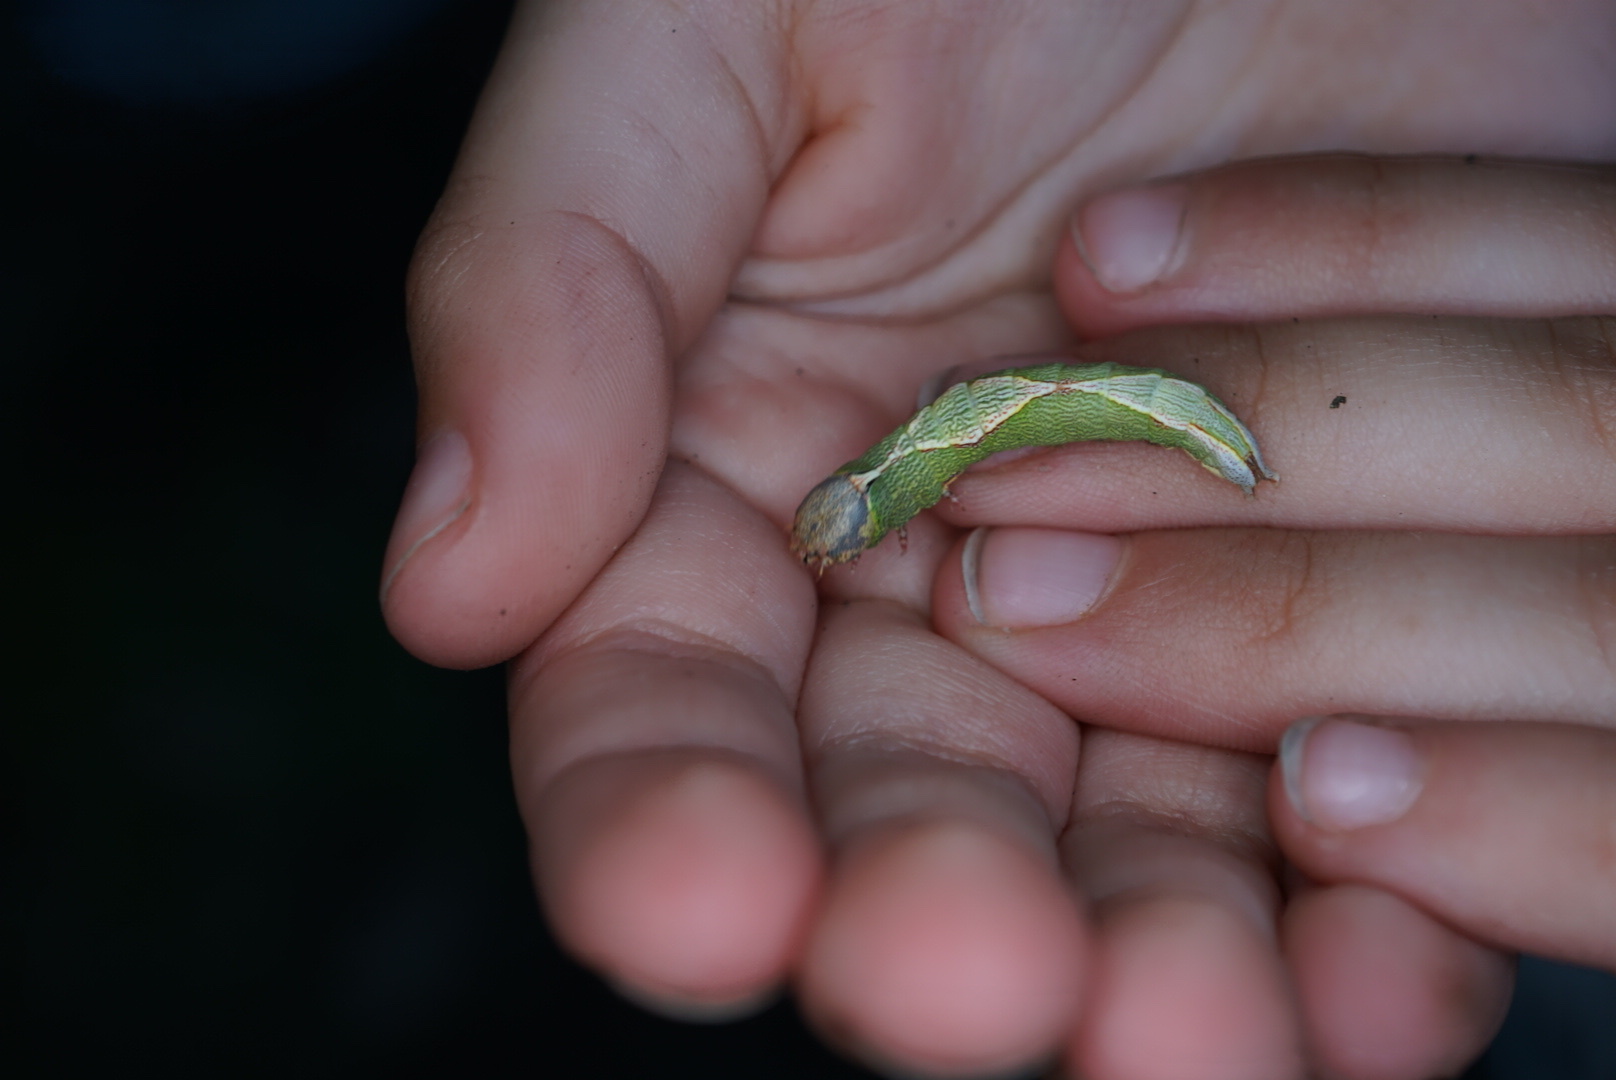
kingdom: Animalia
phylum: Arthropoda
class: Insecta
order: Lepidoptera
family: Notodontidae
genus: Heterocampa
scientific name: Heterocampa obliqua
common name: Oblique heterocampa
